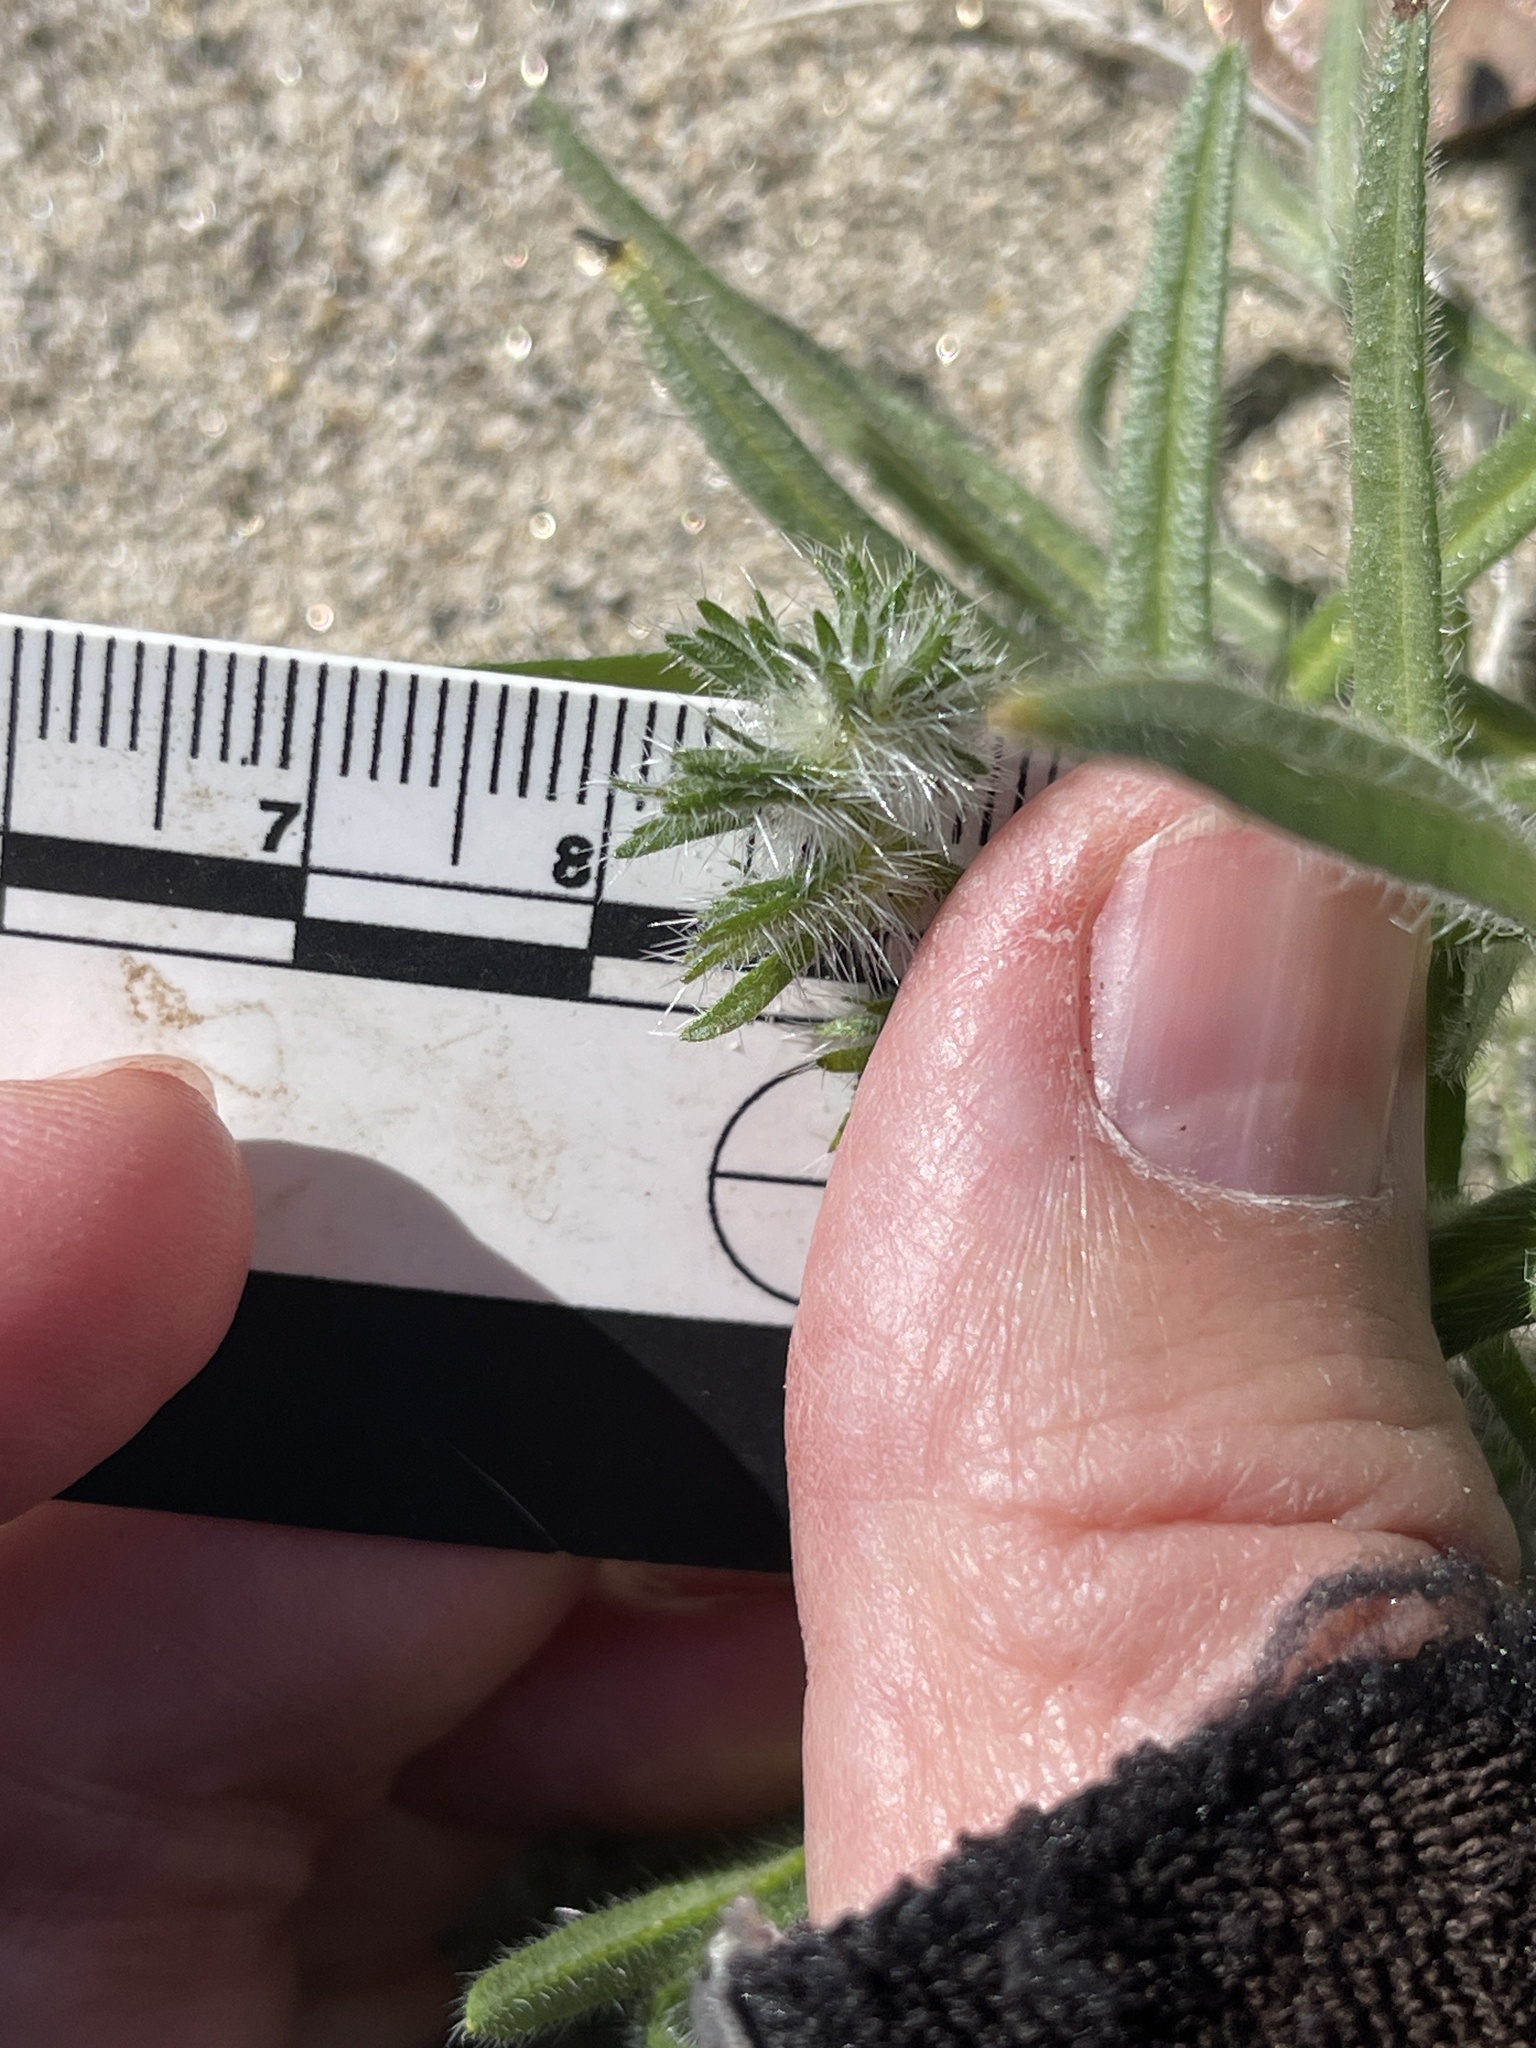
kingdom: Plantae
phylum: Tracheophyta
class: Magnoliopsida
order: Boraginales
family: Boraginaceae
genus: Cryptantha
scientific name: Cryptantha ganderi
